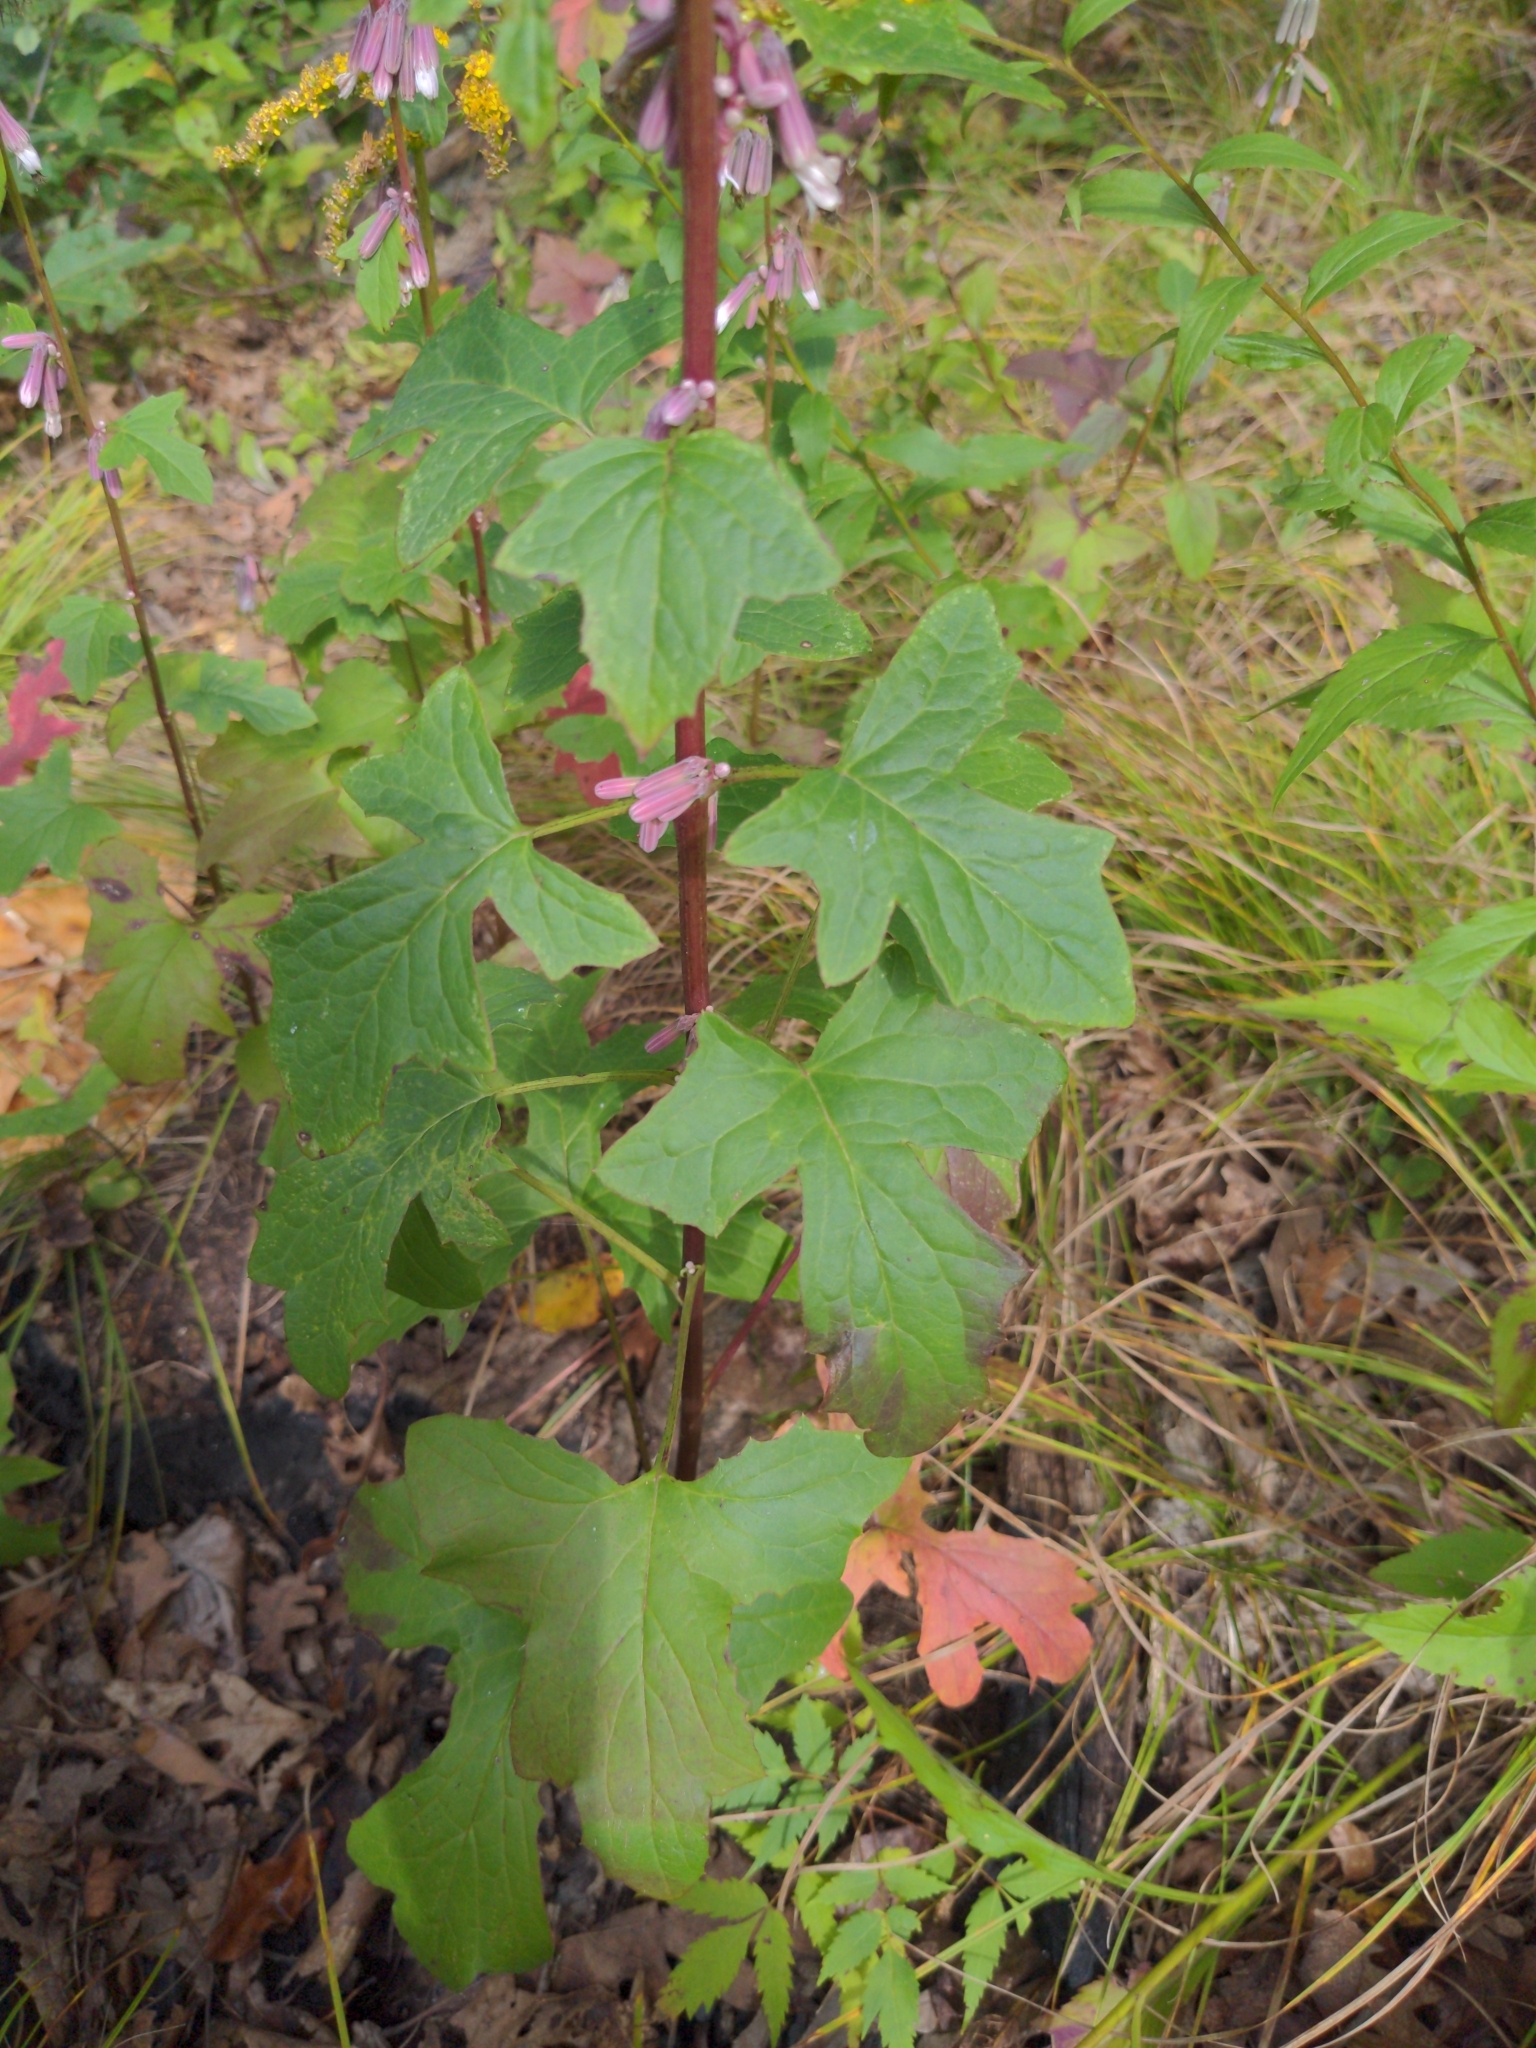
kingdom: Plantae
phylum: Tracheophyta
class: Magnoliopsida
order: Asterales
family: Asteraceae
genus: Nabalus
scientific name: Nabalus albus
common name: White rattlesnakeroot
